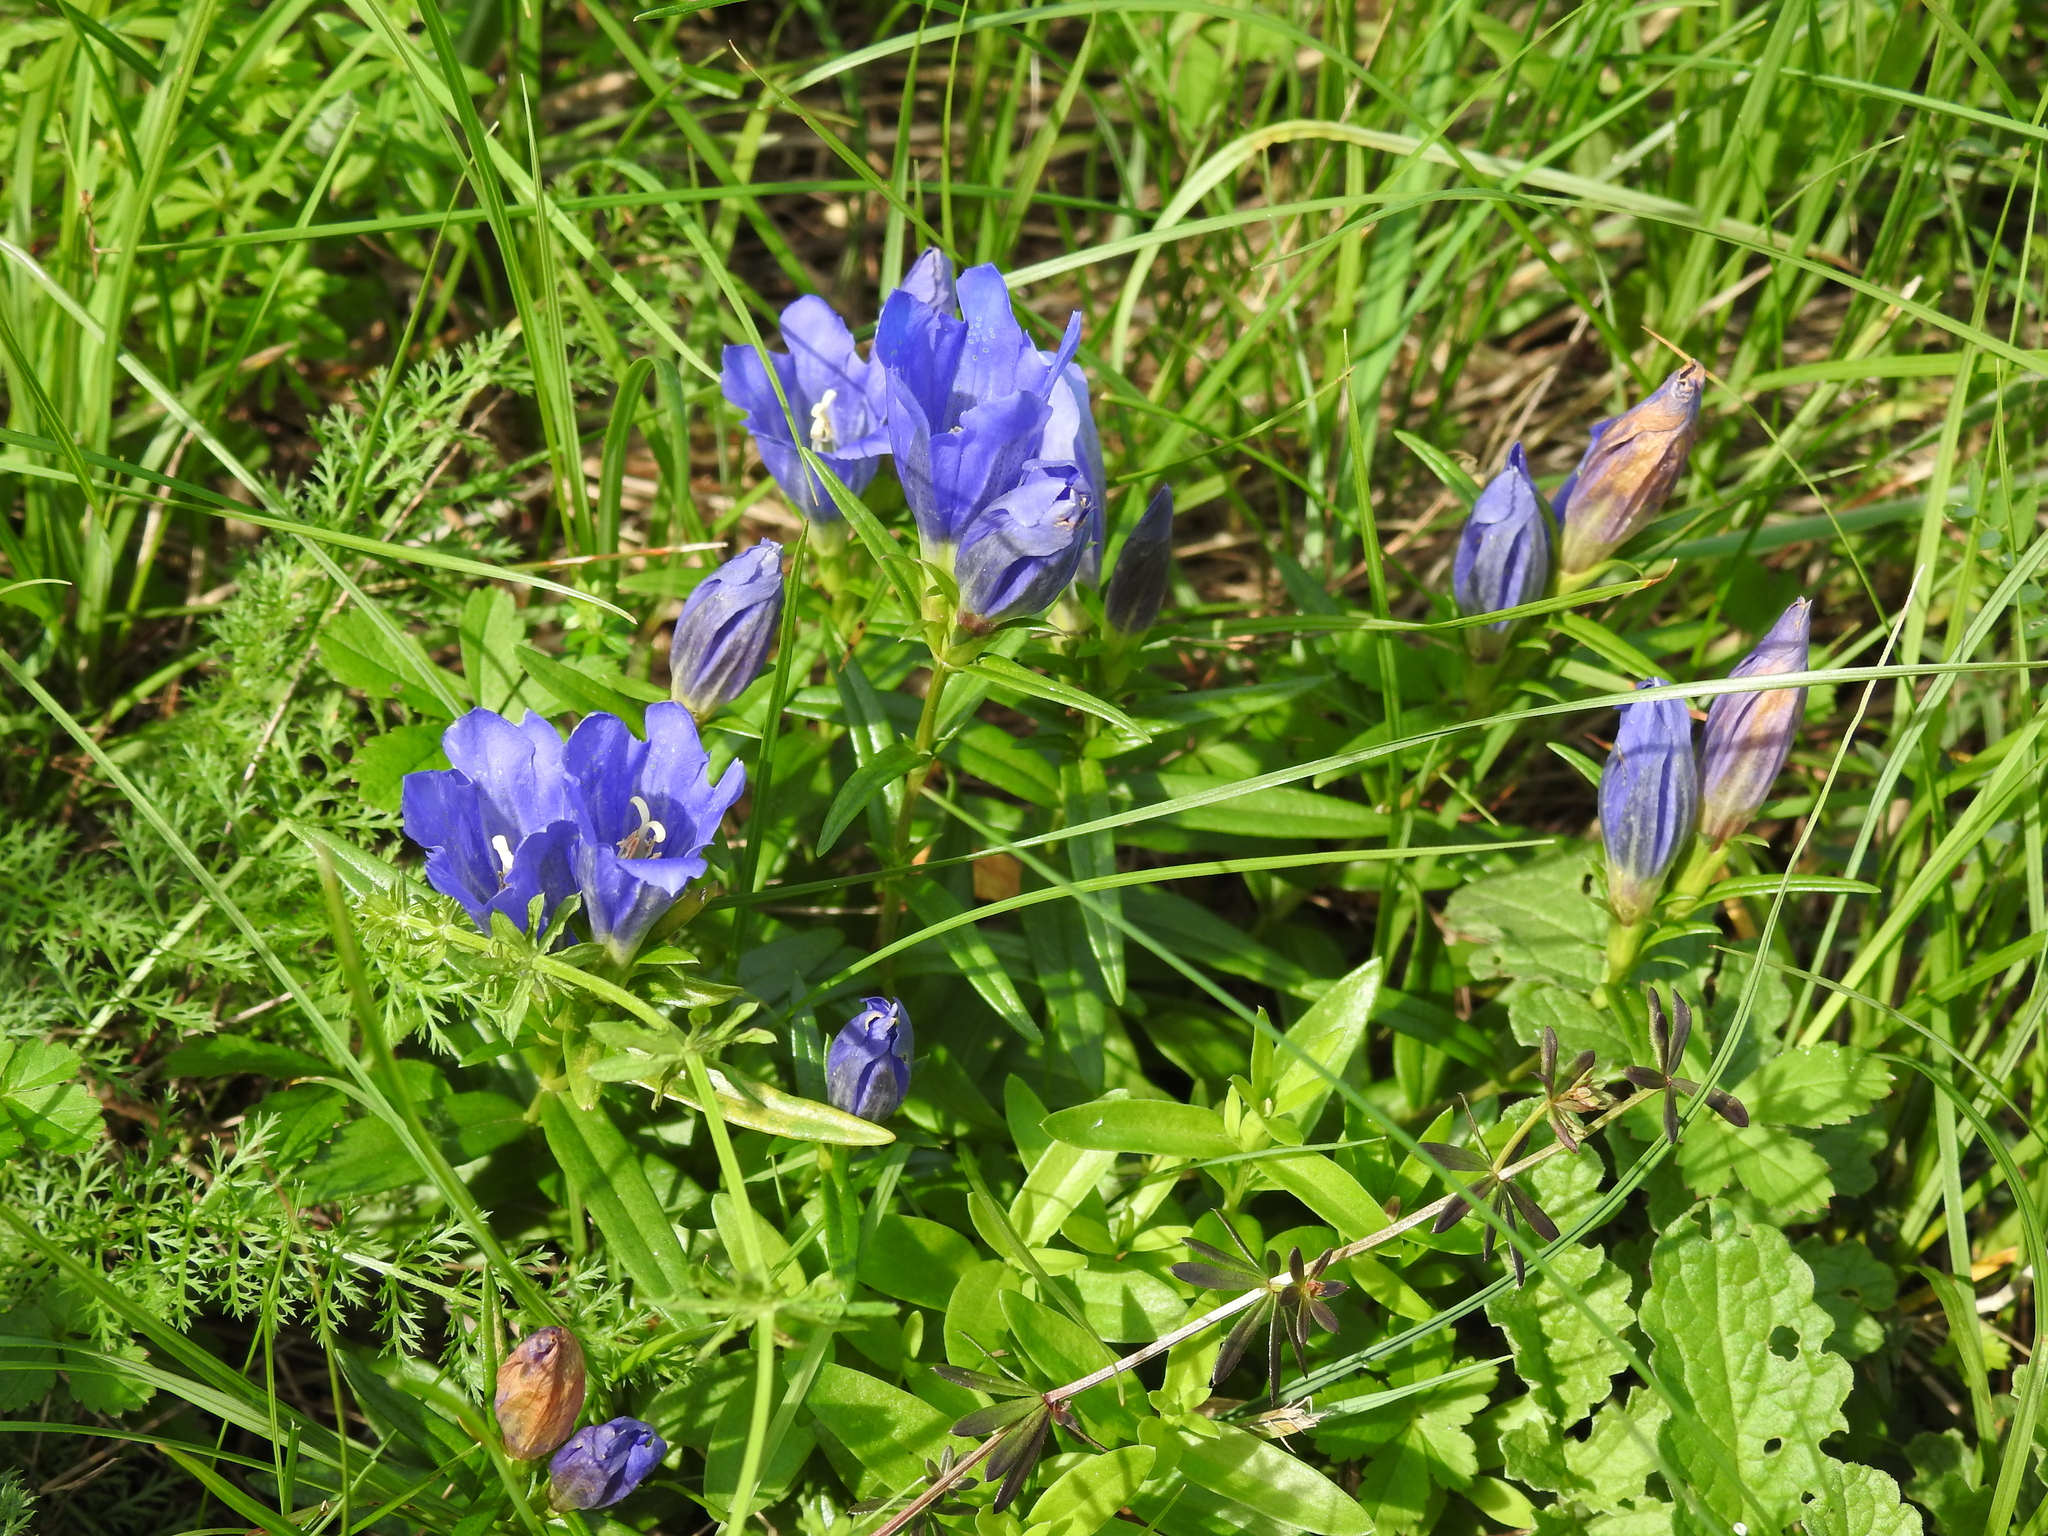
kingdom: Plantae
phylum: Tracheophyta
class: Magnoliopsida
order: Gentianales
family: Gentianaceae
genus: Gentiana
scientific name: Gentiana pneumonanthe
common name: Marsh gentian
